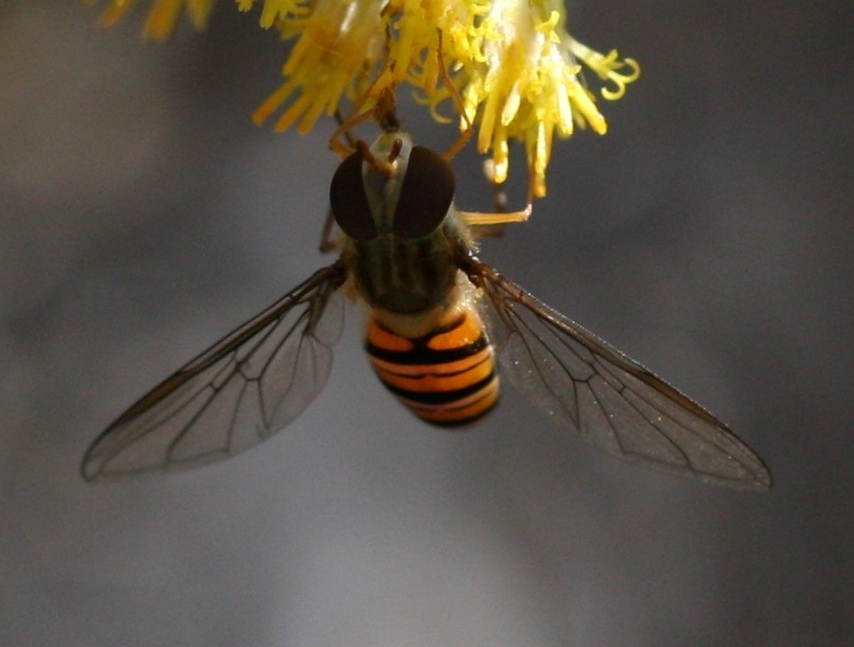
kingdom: Animalia
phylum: Arthropoda
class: Insecta
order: Diptera
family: Syrphidae
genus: Episyrphus
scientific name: Episyrphus balteatus
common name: Marmalade hoverfly
